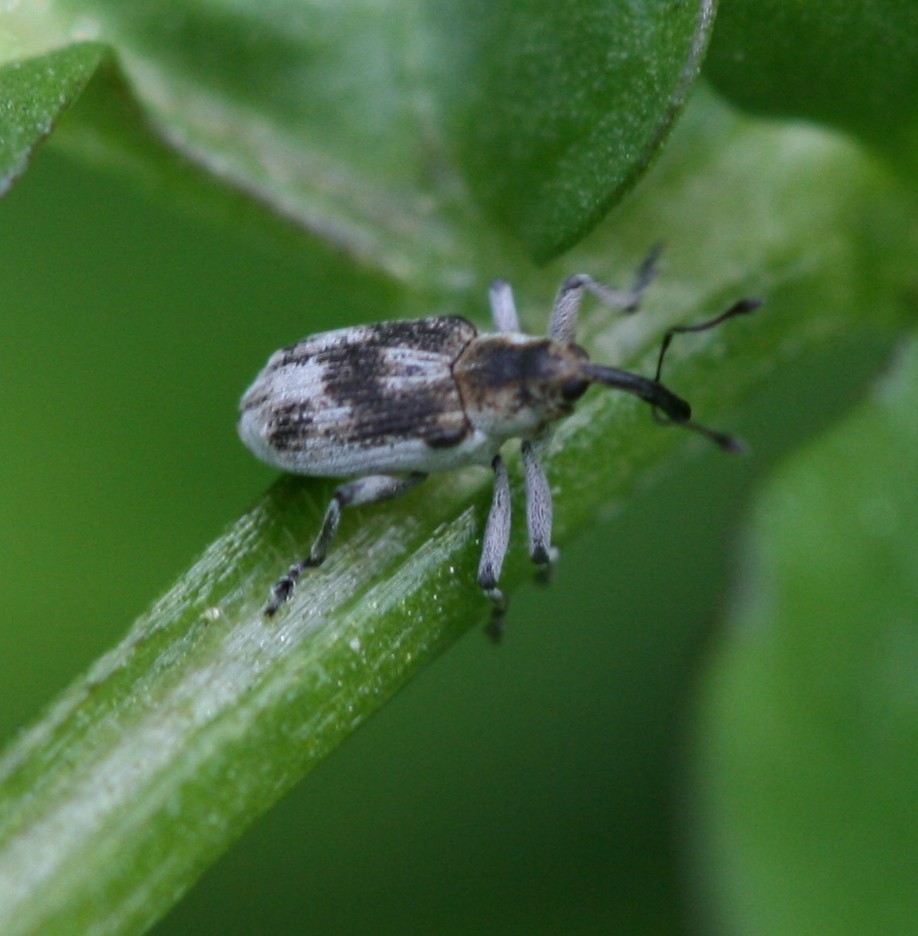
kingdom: Animalia
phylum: Arthropoda
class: Insecta
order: Coleoptera
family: Curculionidae
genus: Poophagus
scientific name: Poophagus sisymbrii
